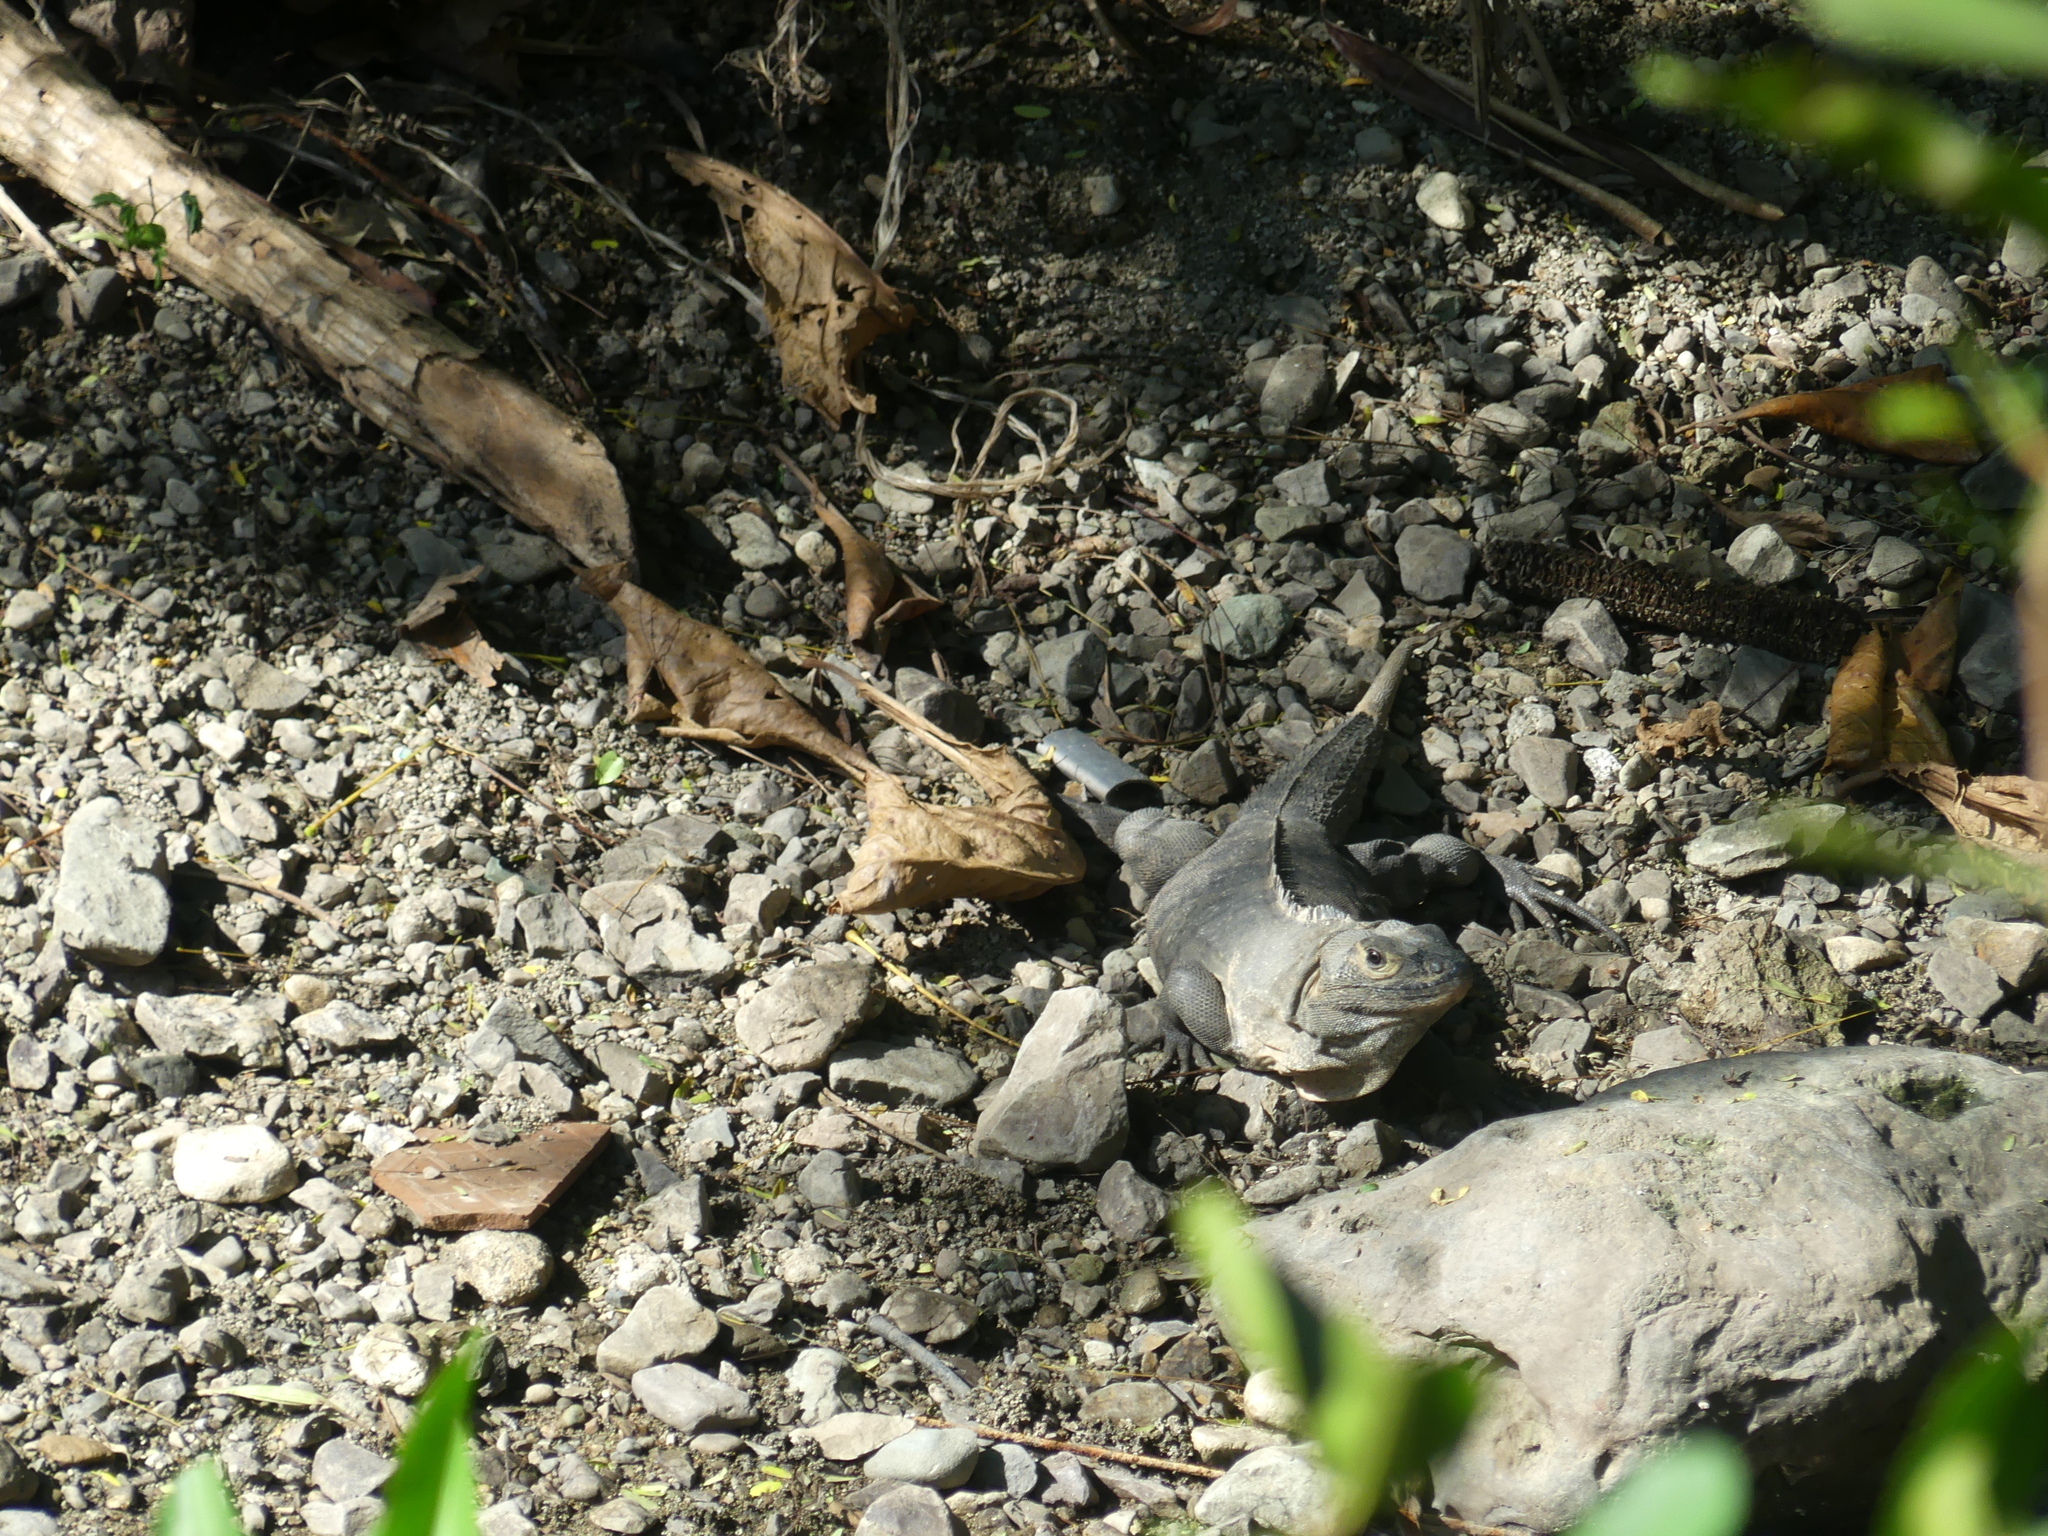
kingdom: Animalia
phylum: Chordata
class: Squamata
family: Iguanidae
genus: Ctenosaura
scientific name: Ctenosaura similis
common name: Black spiny-tailed iguana
